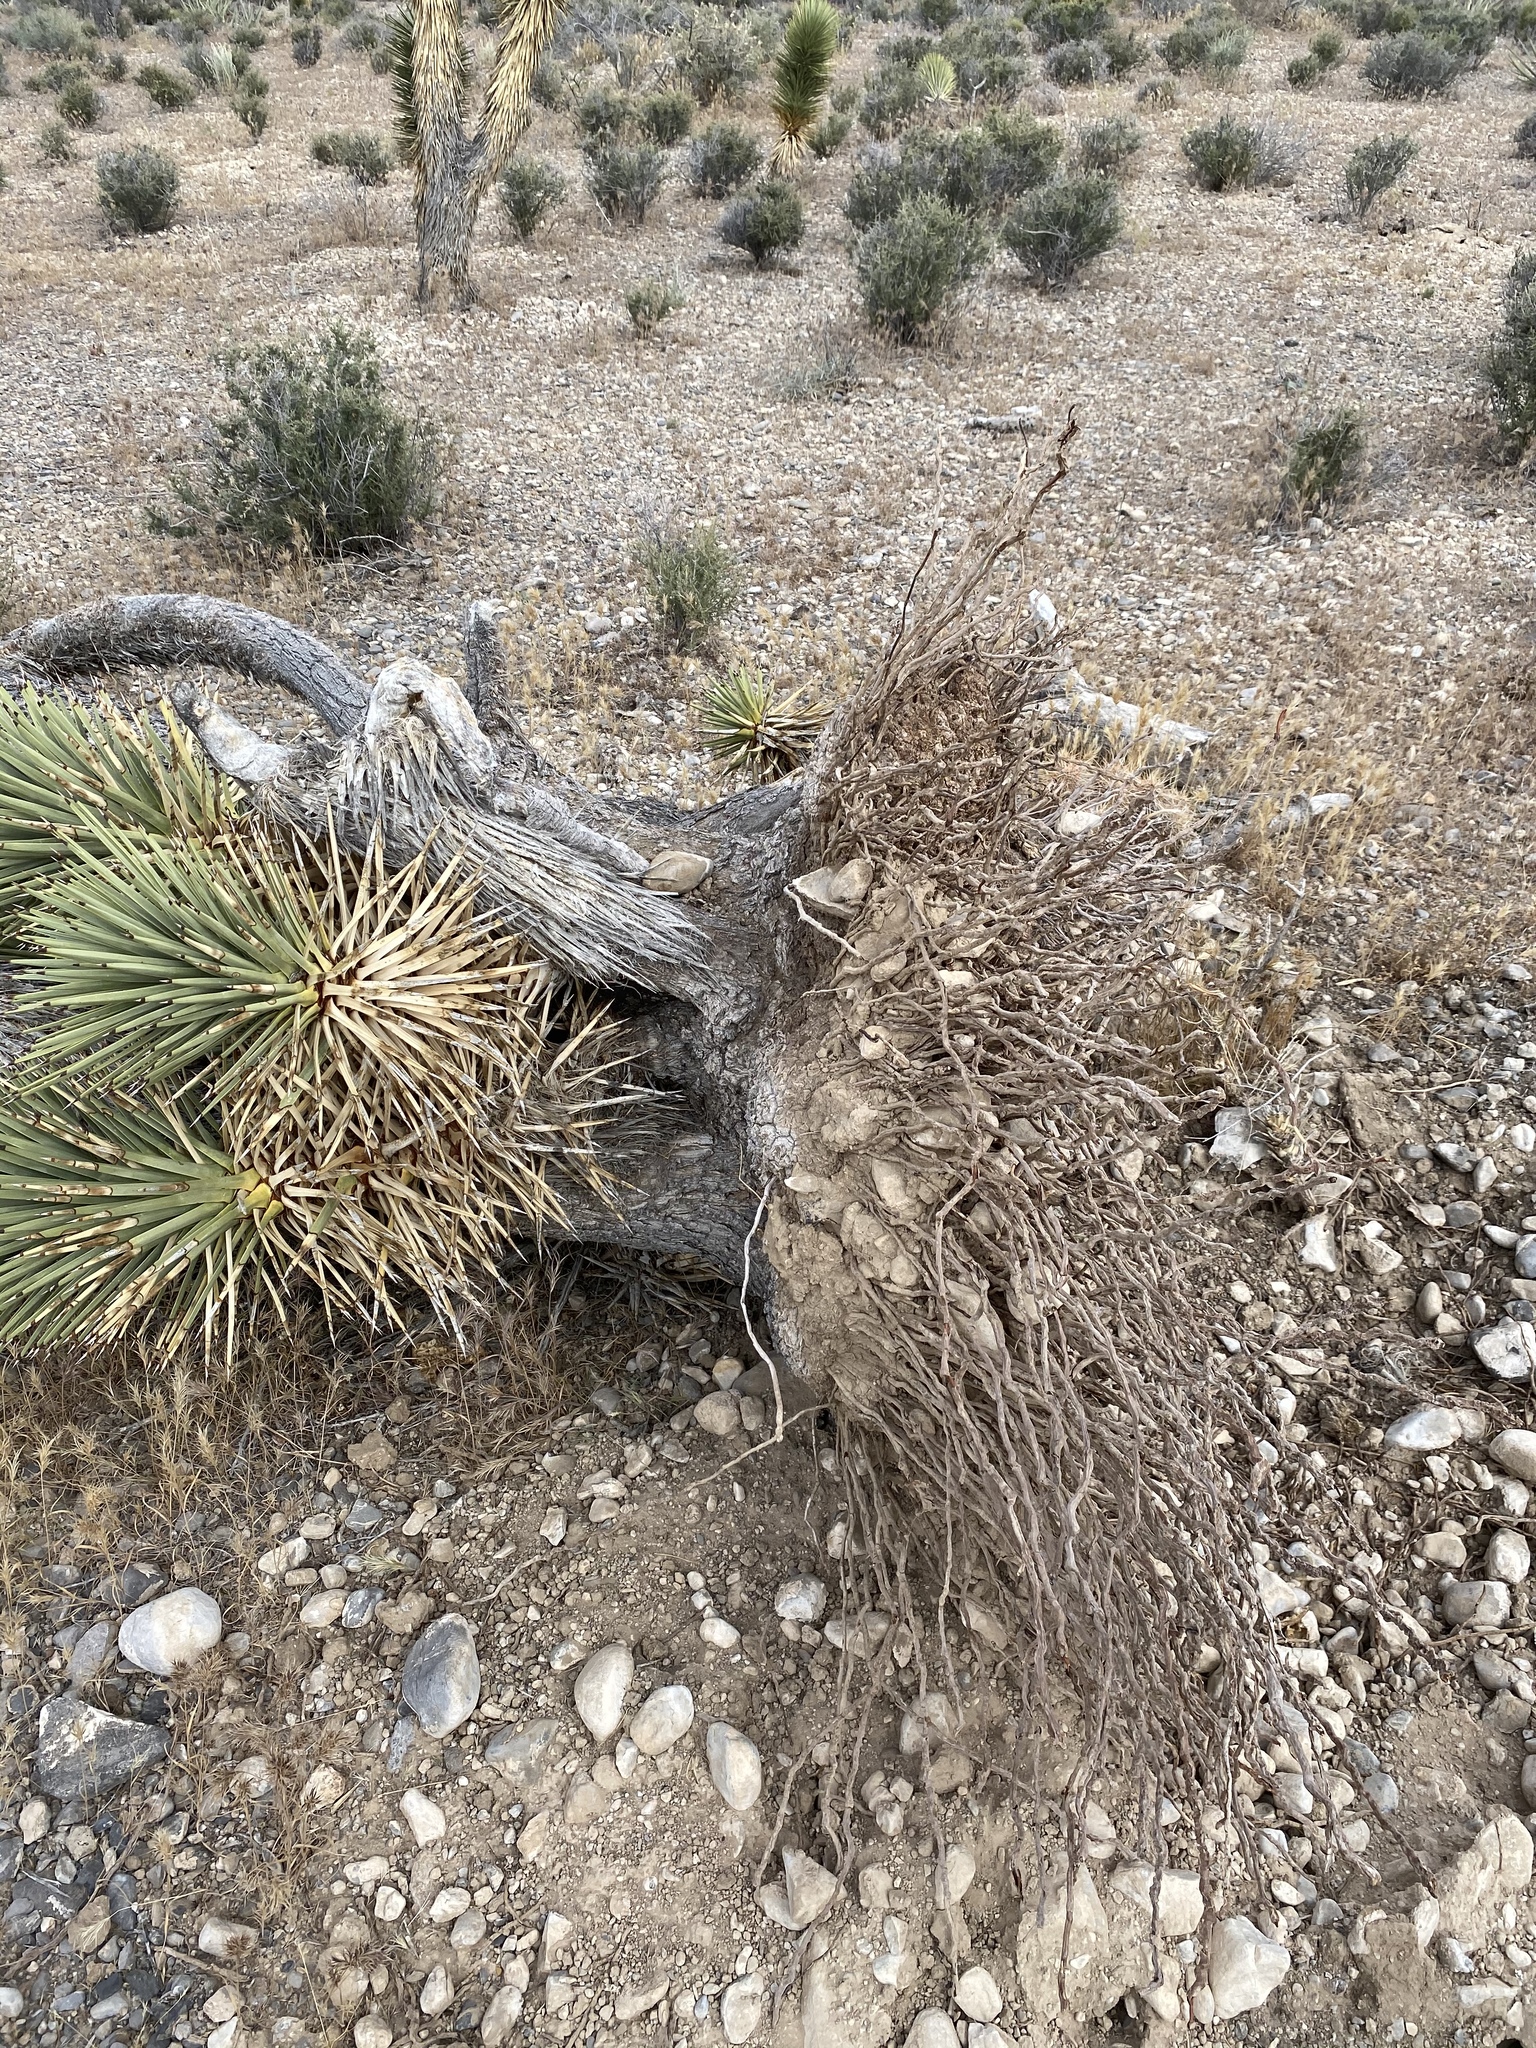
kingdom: Plantae
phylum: Tracheophyta
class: Liliopsida
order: Asparagales
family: Asparagaceae
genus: Yucca
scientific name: Yucca brevifolia
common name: Joshua tree
